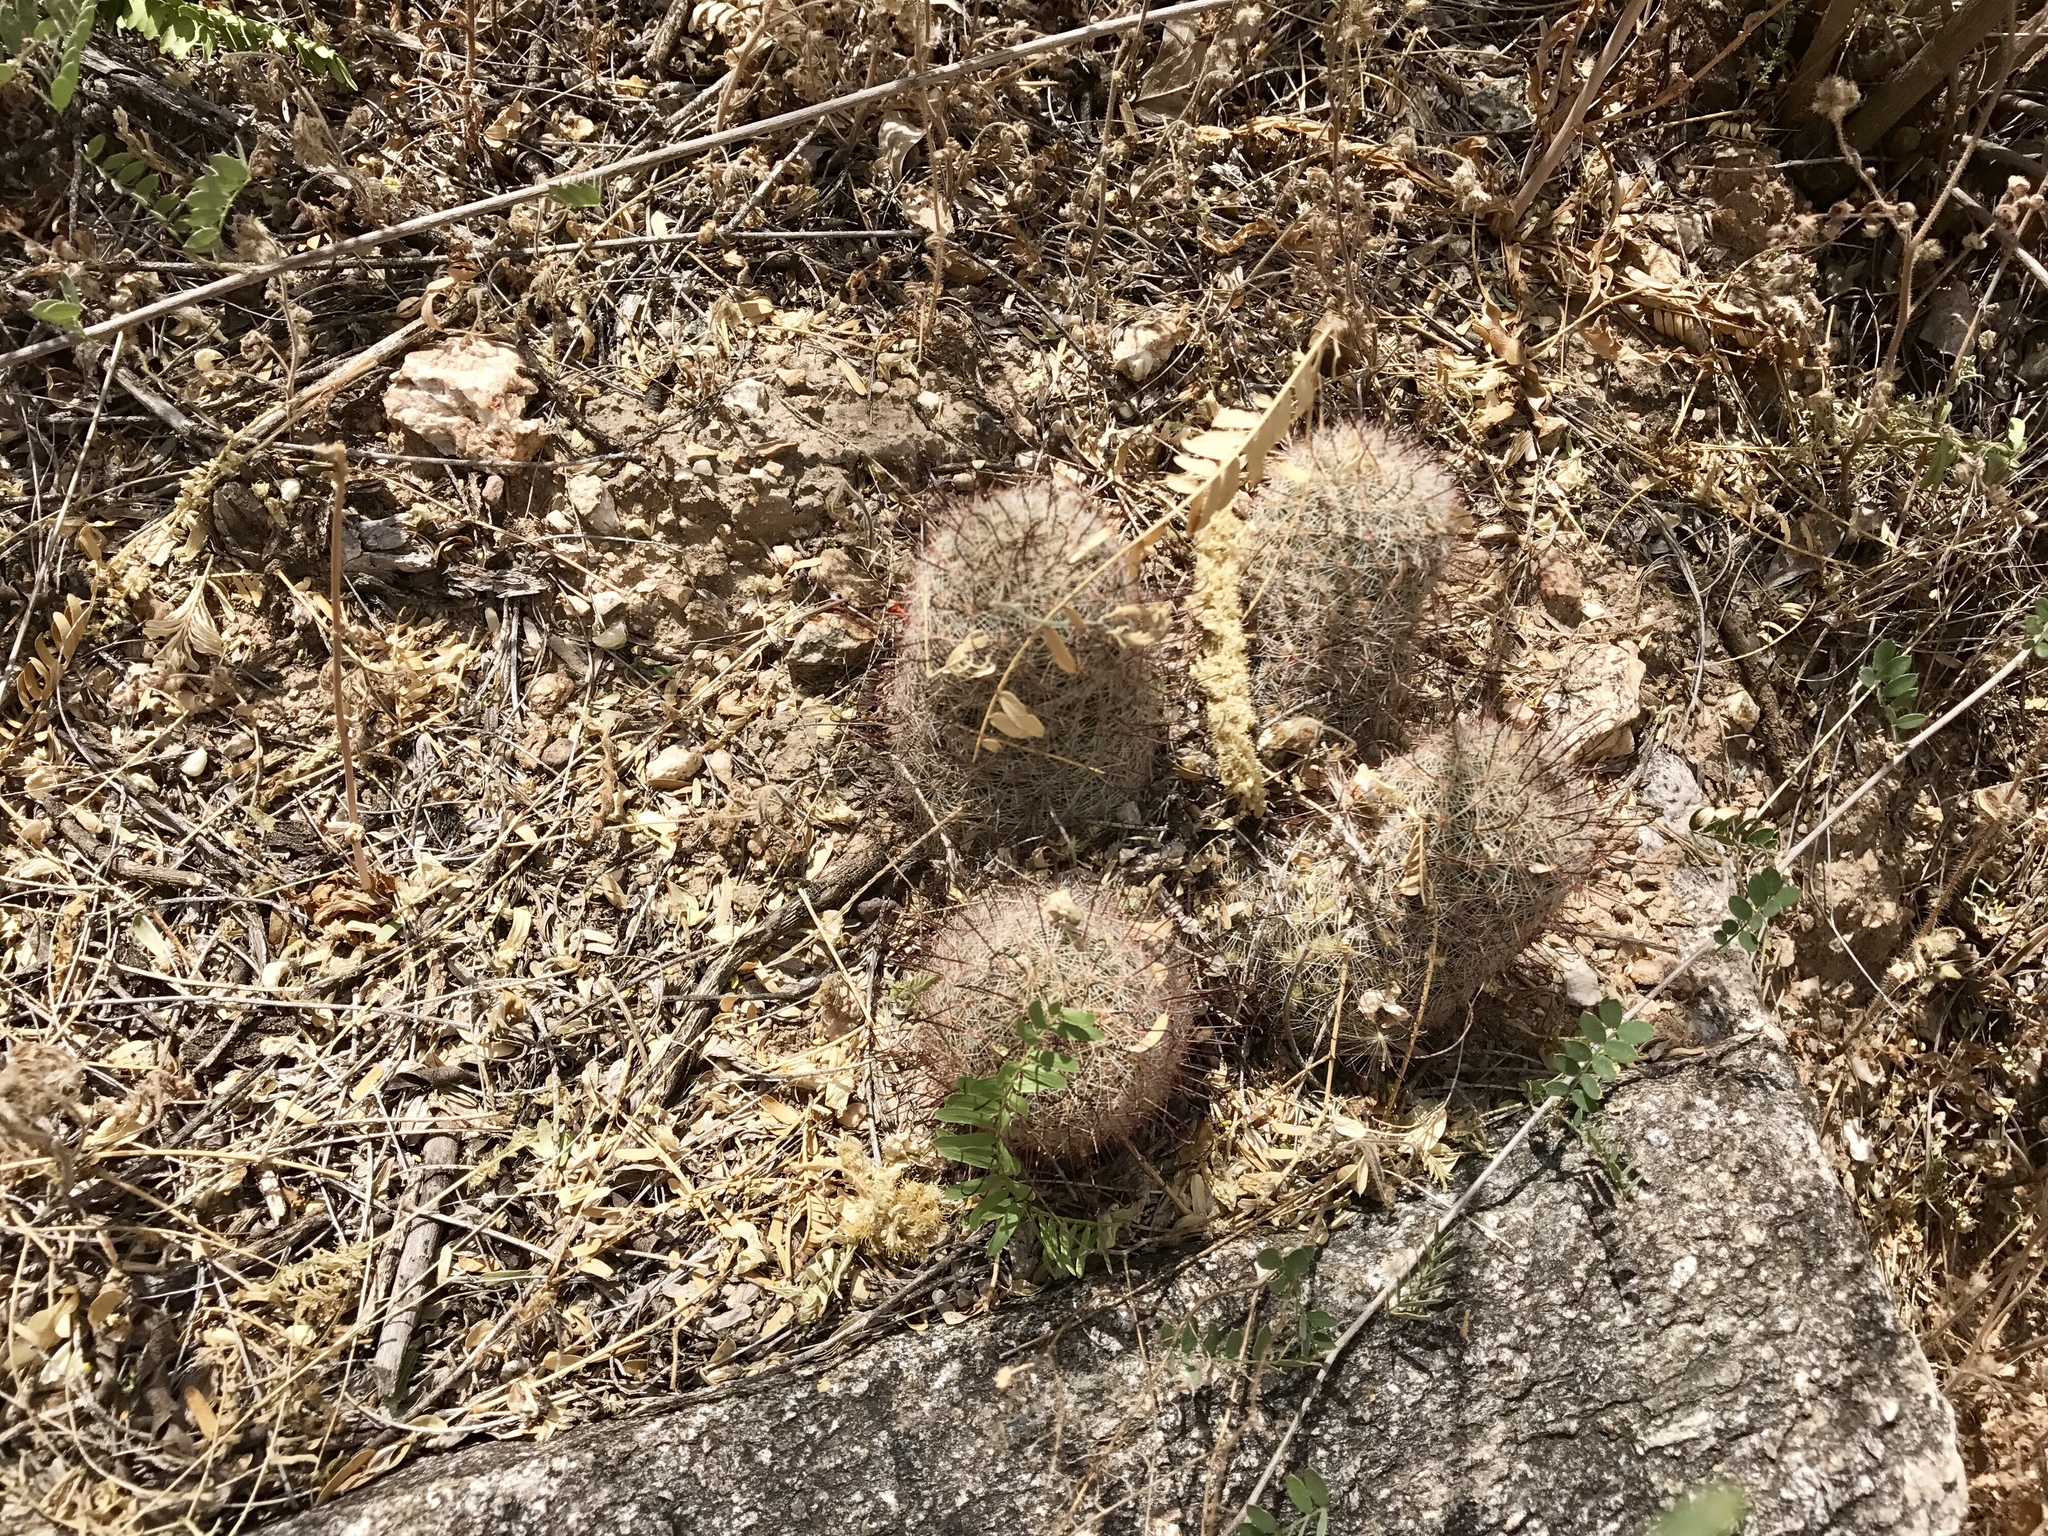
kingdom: Plantae
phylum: Tracheophyta
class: Magnoliopsida
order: Caryophyllales
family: Cactaceae
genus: Cochemiea
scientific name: Cochemiea grahamii
